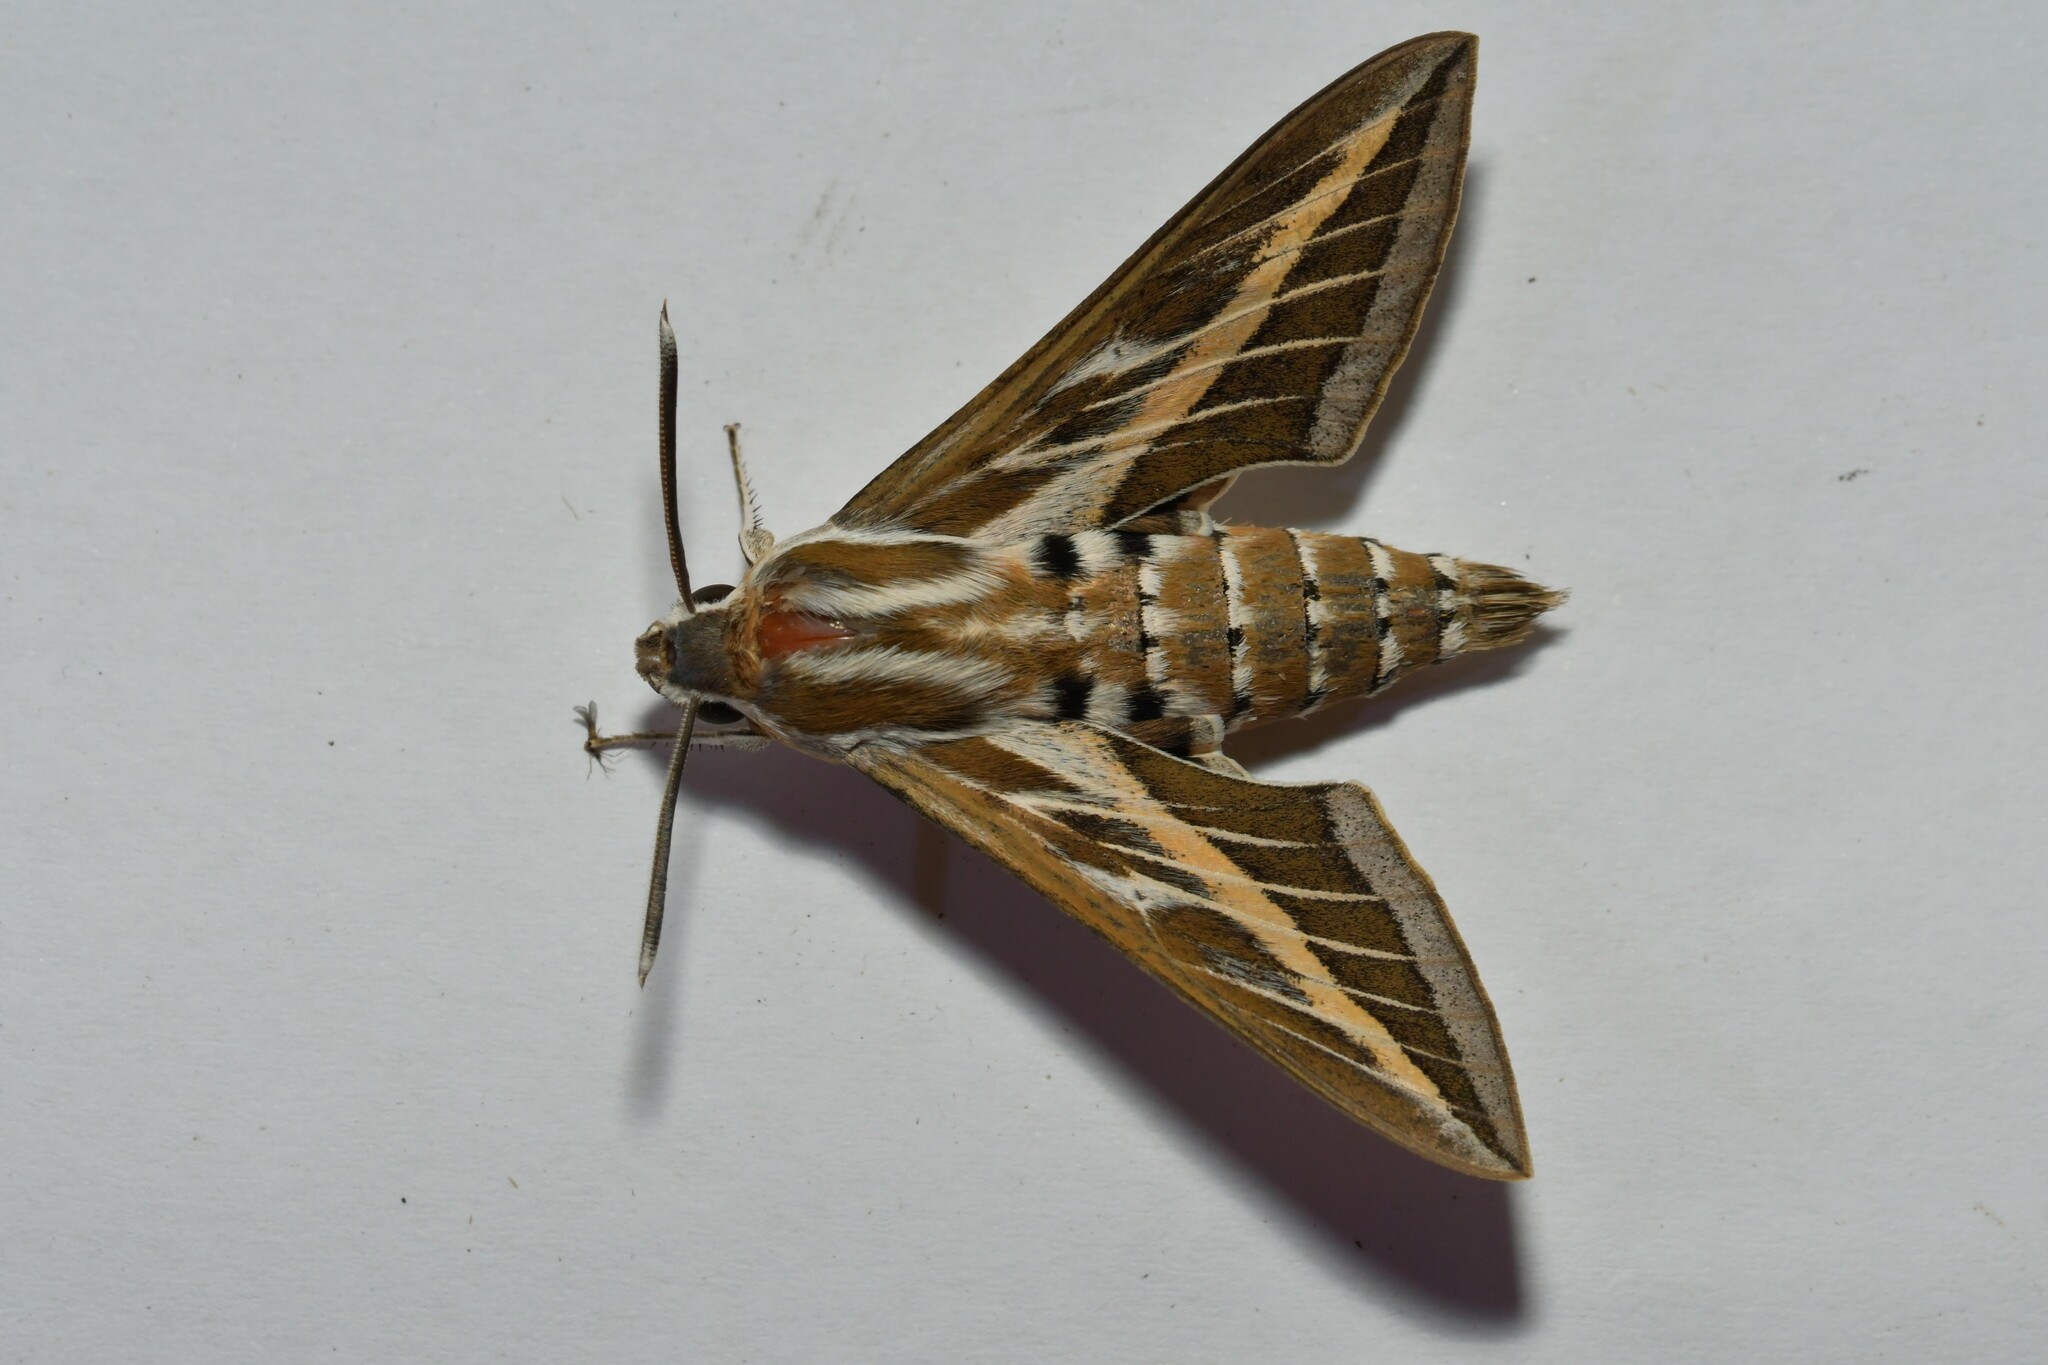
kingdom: Animalia
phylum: Arthropoda
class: Insecta
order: Lepidoptera
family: Sphingidae
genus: Hyles
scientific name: Hyles livornica
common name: Striped hawk-moth
